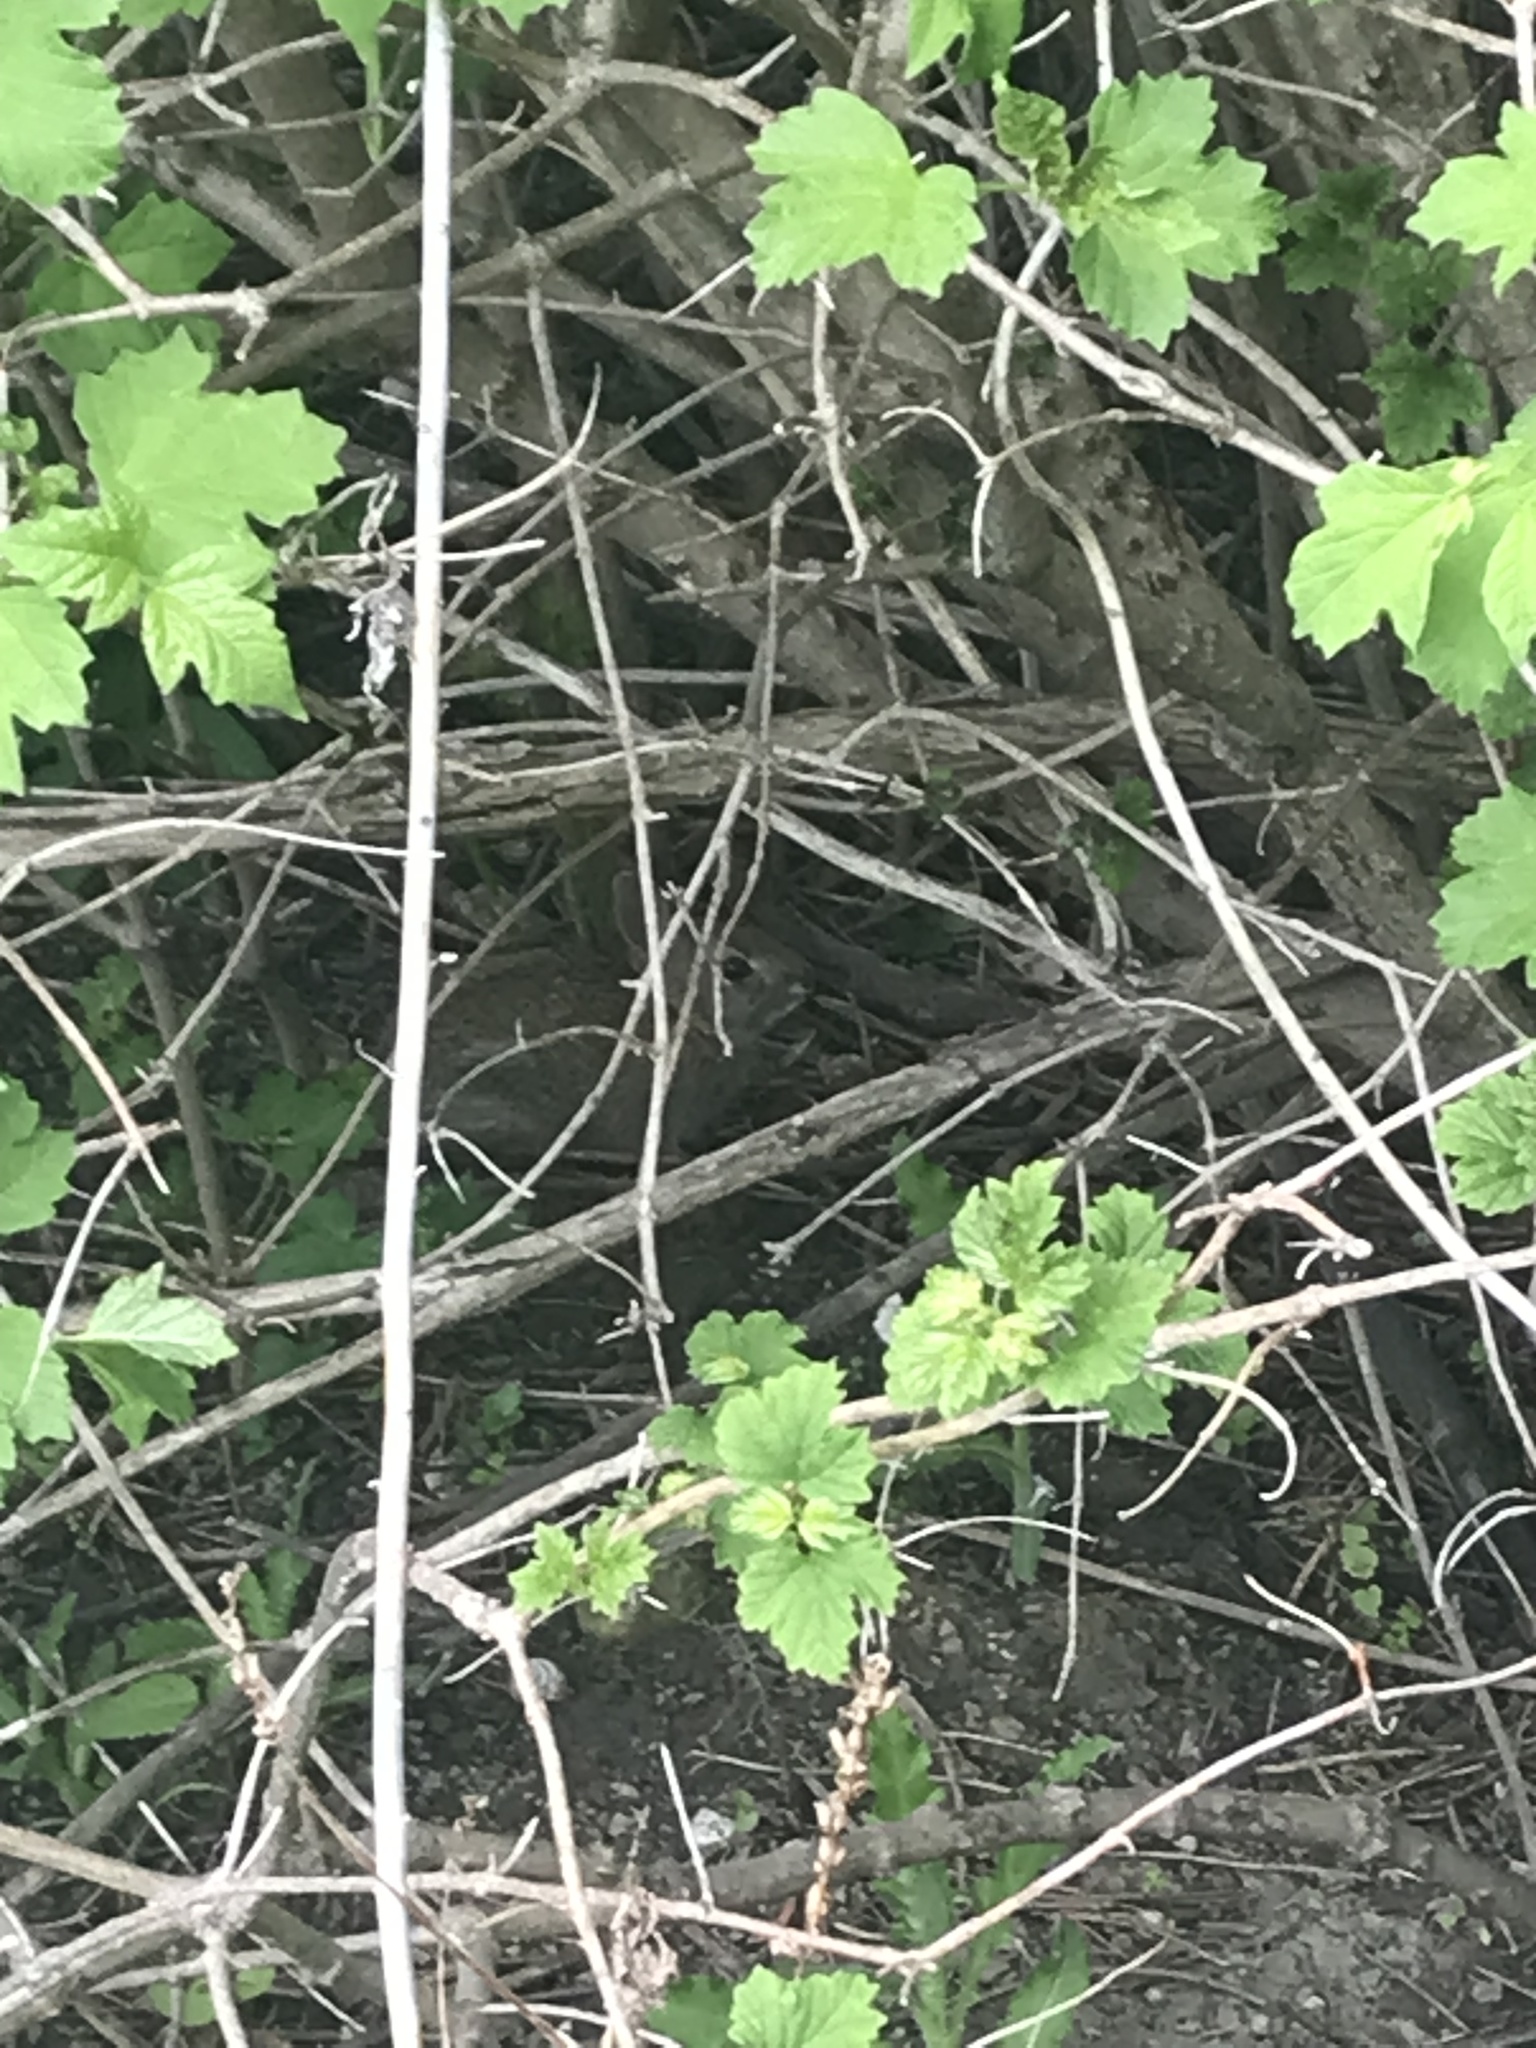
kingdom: Animalia
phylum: Chordata
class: Mammalia
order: Lagomorpha
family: Leporidae
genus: Sylvilagus
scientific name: Sylvilagus floridanus
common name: Eastern cottontail
